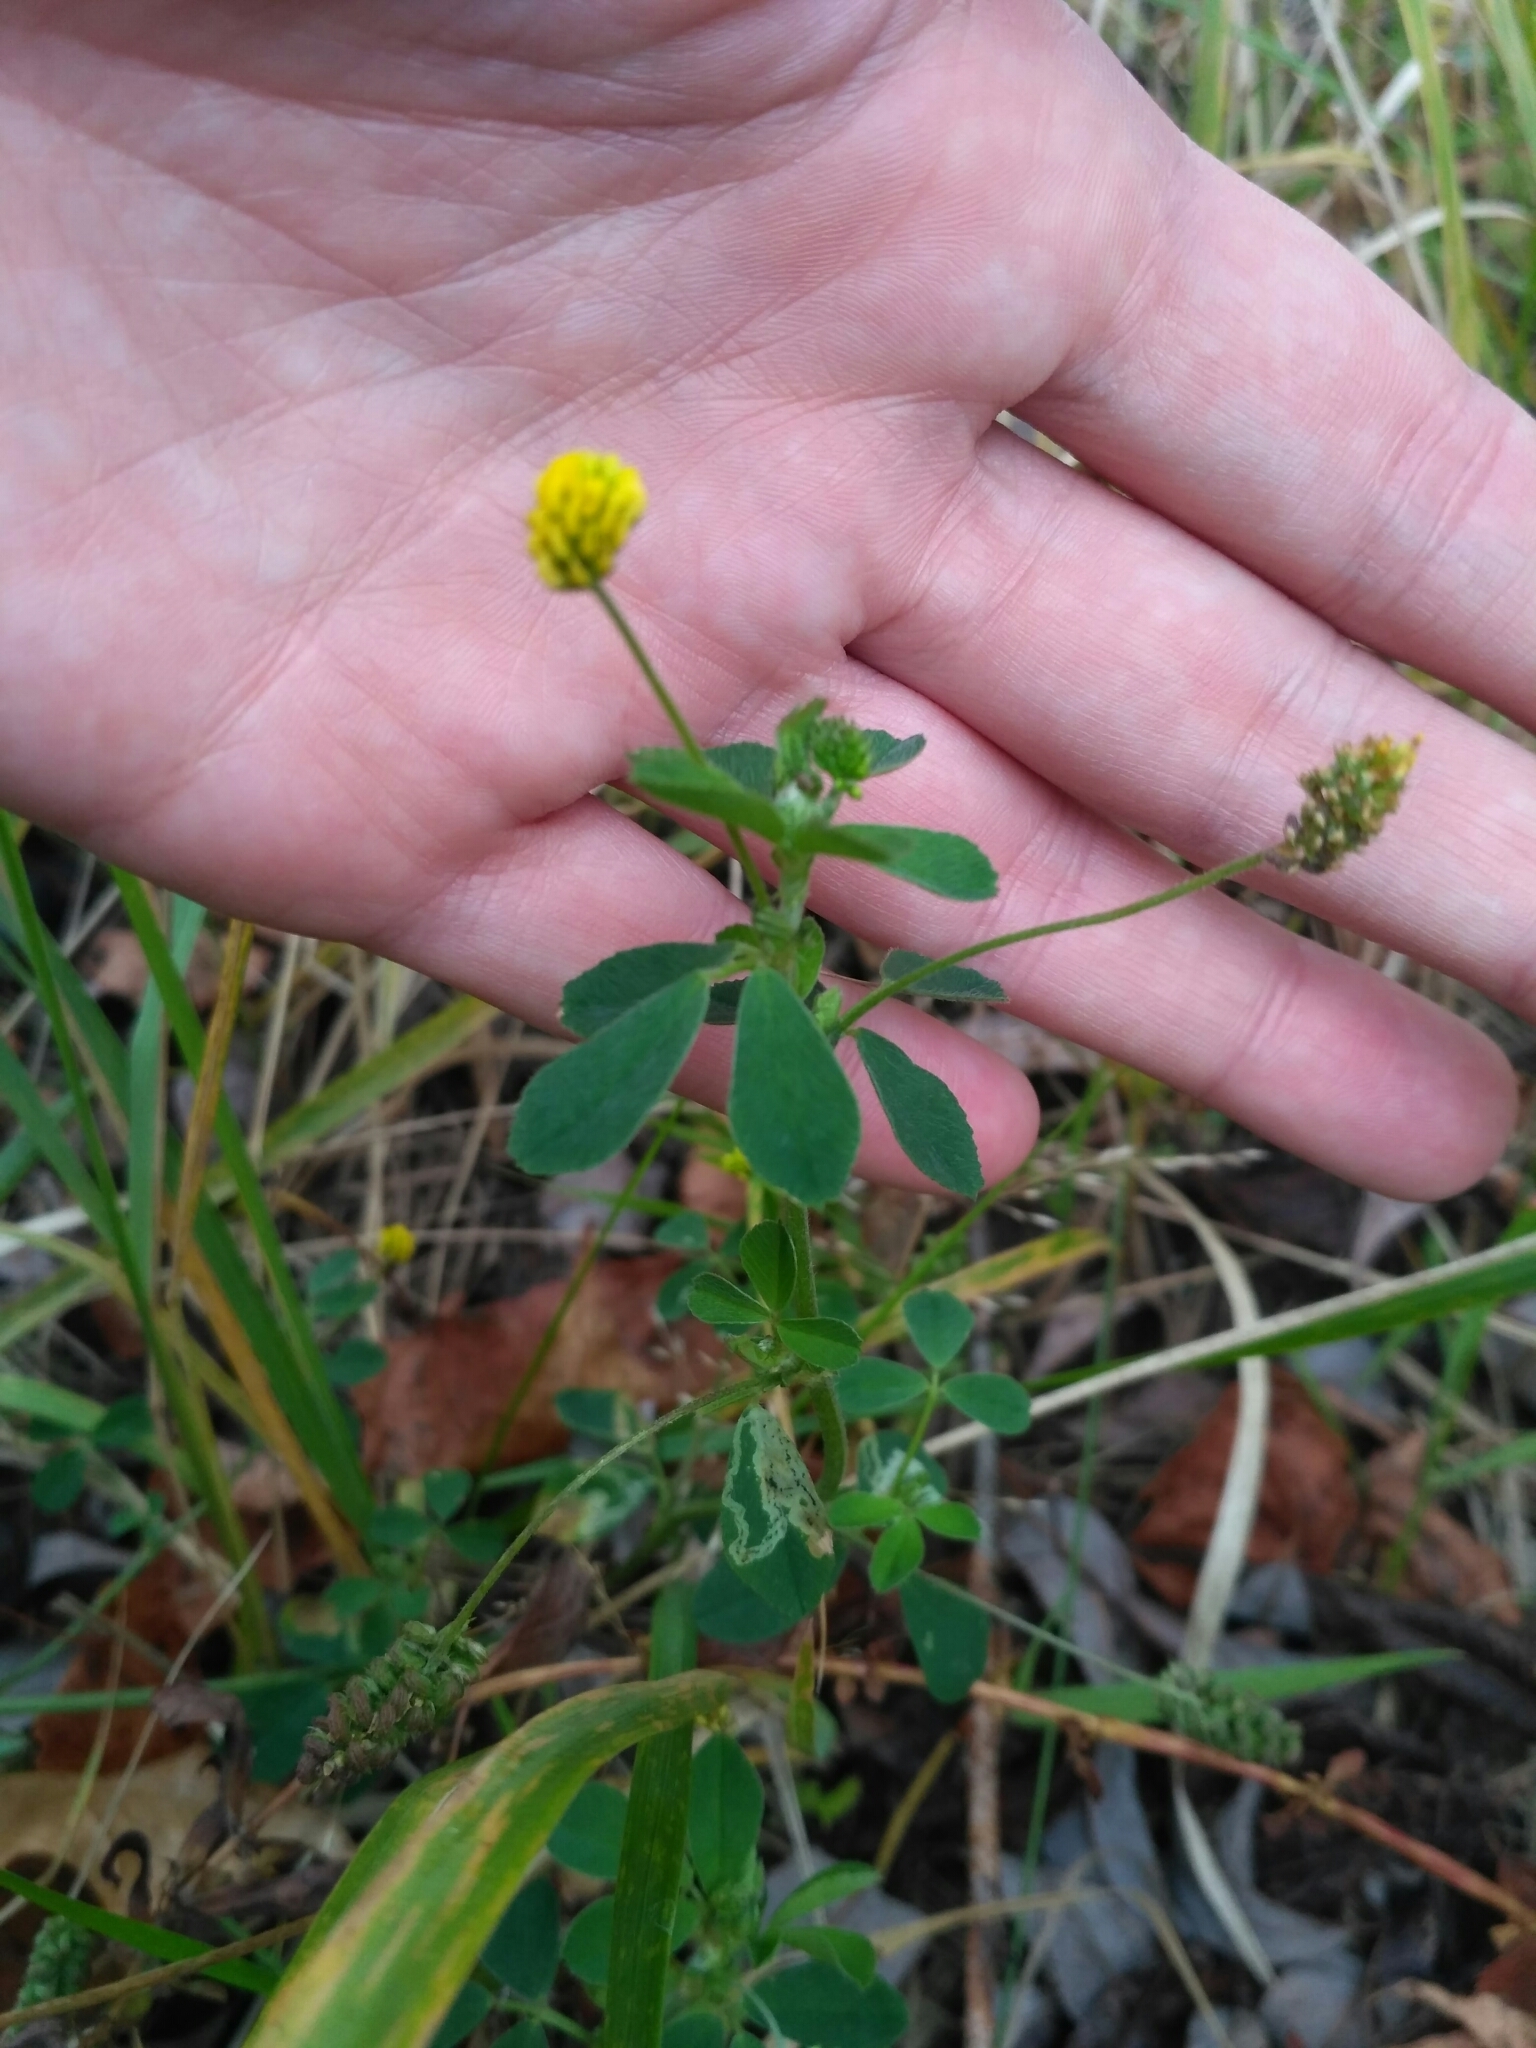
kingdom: Plantae
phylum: Tracheophyta
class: Magnoliopsida
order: Fabales
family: Fabaceae
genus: Medicago
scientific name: Medicago lupulina
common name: Black medick
